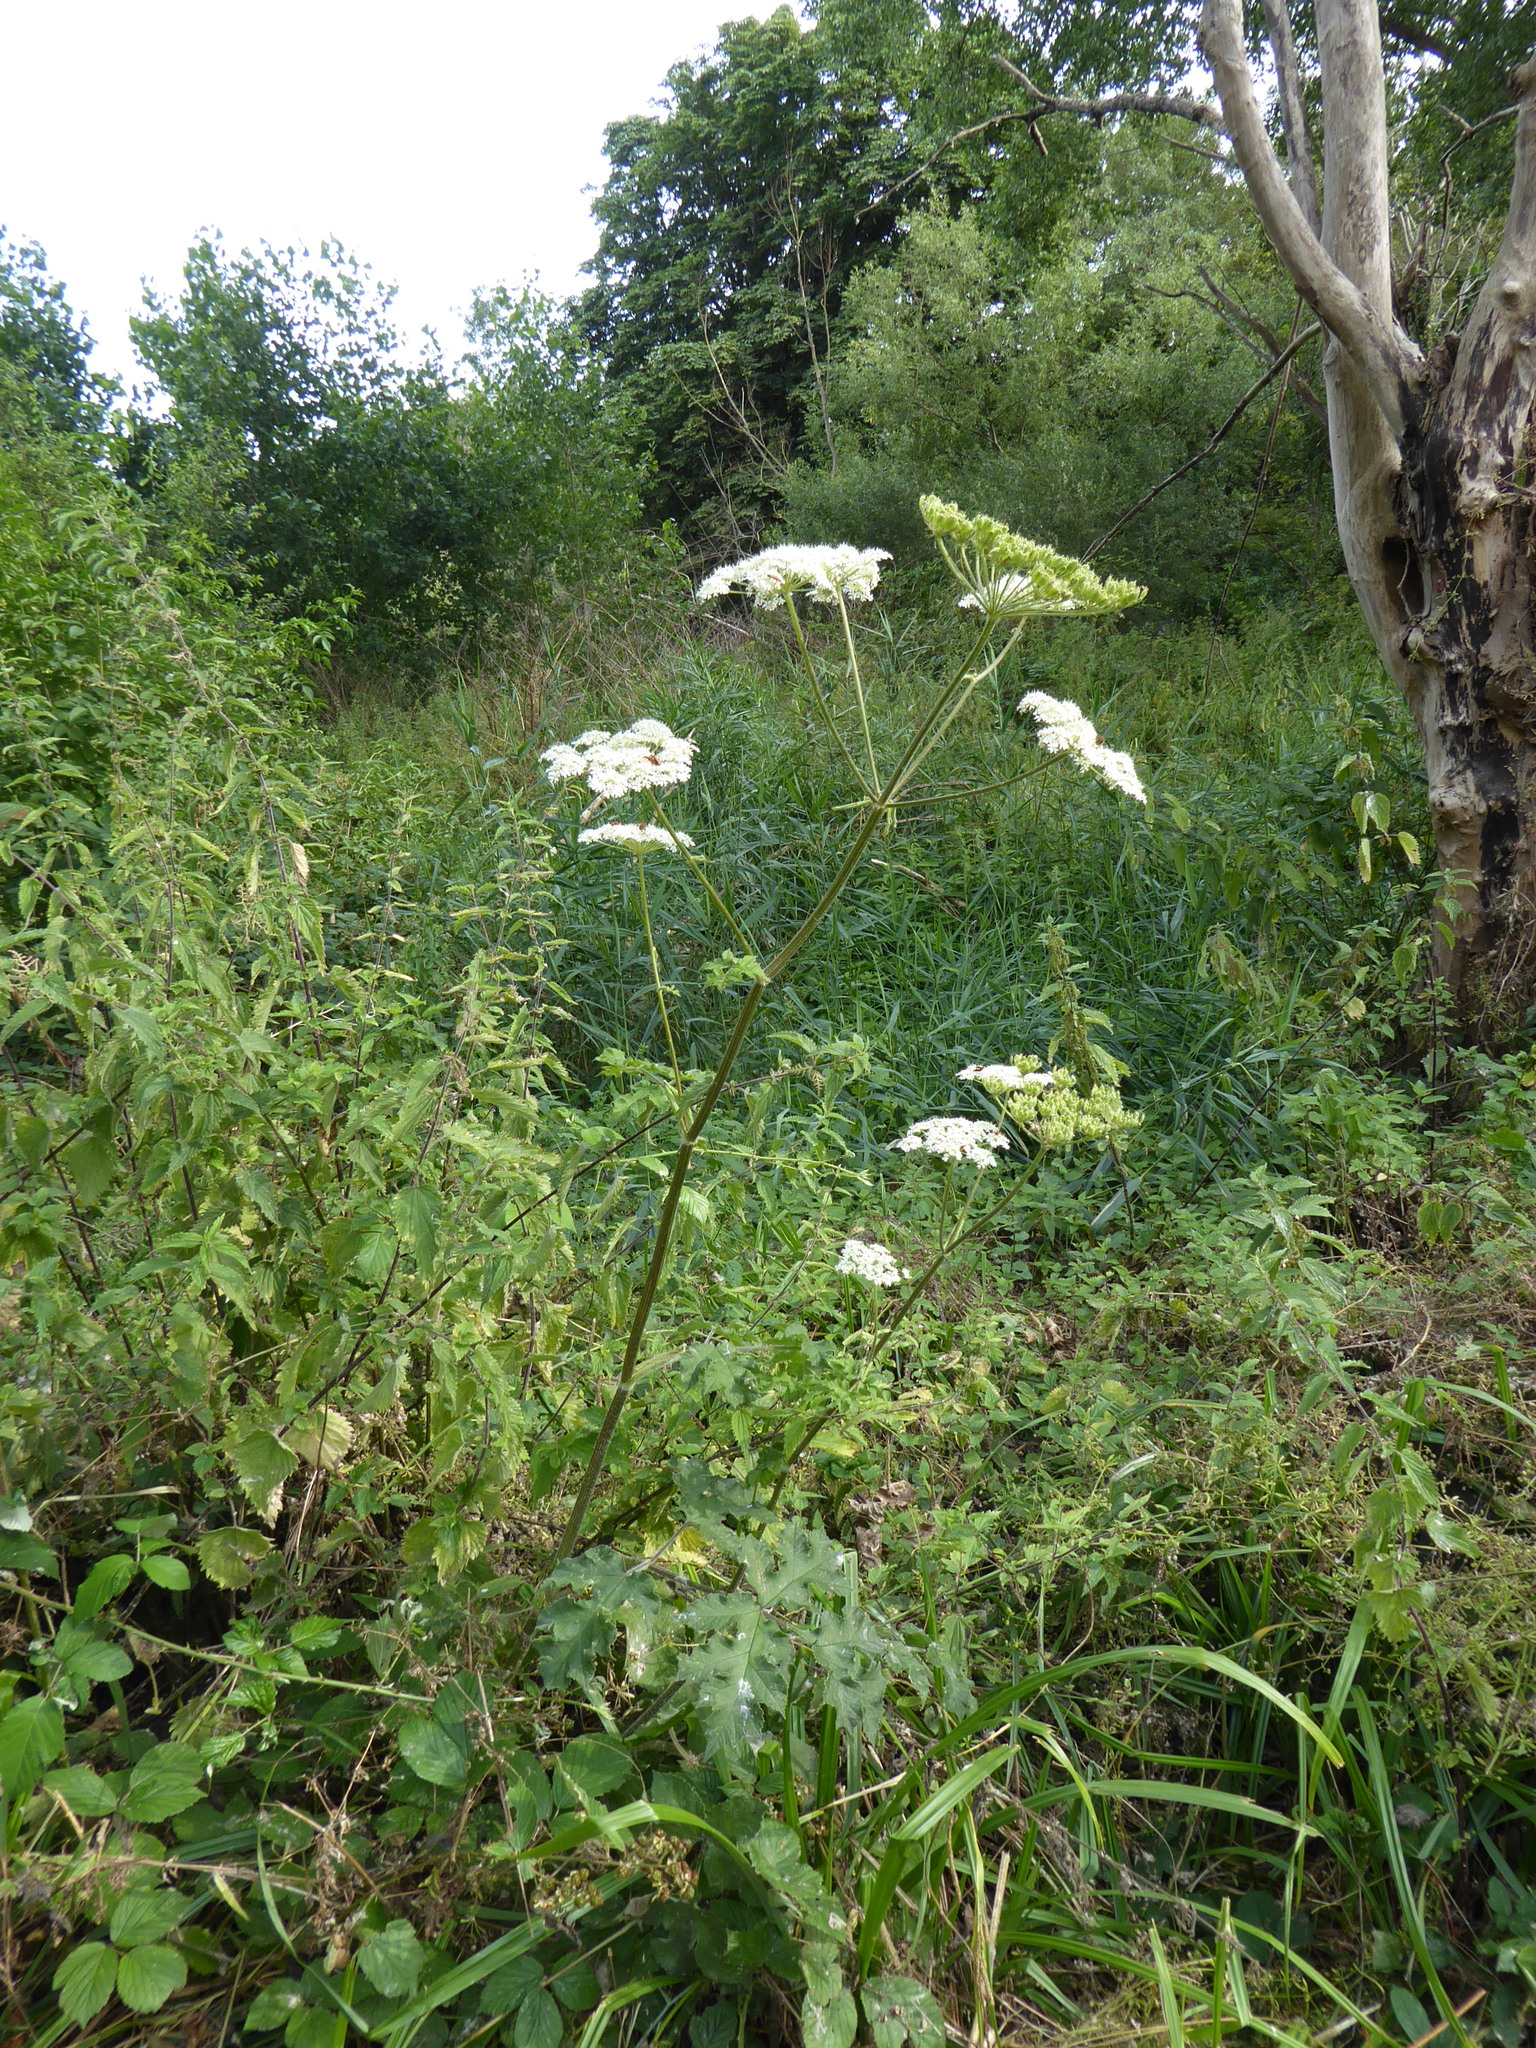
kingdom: Plantae
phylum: Tracheophyta
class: Magnoliopsida
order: Apiales
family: Apiaceae
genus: Heracleum
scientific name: Heracleum sphondylium
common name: Hogweed
